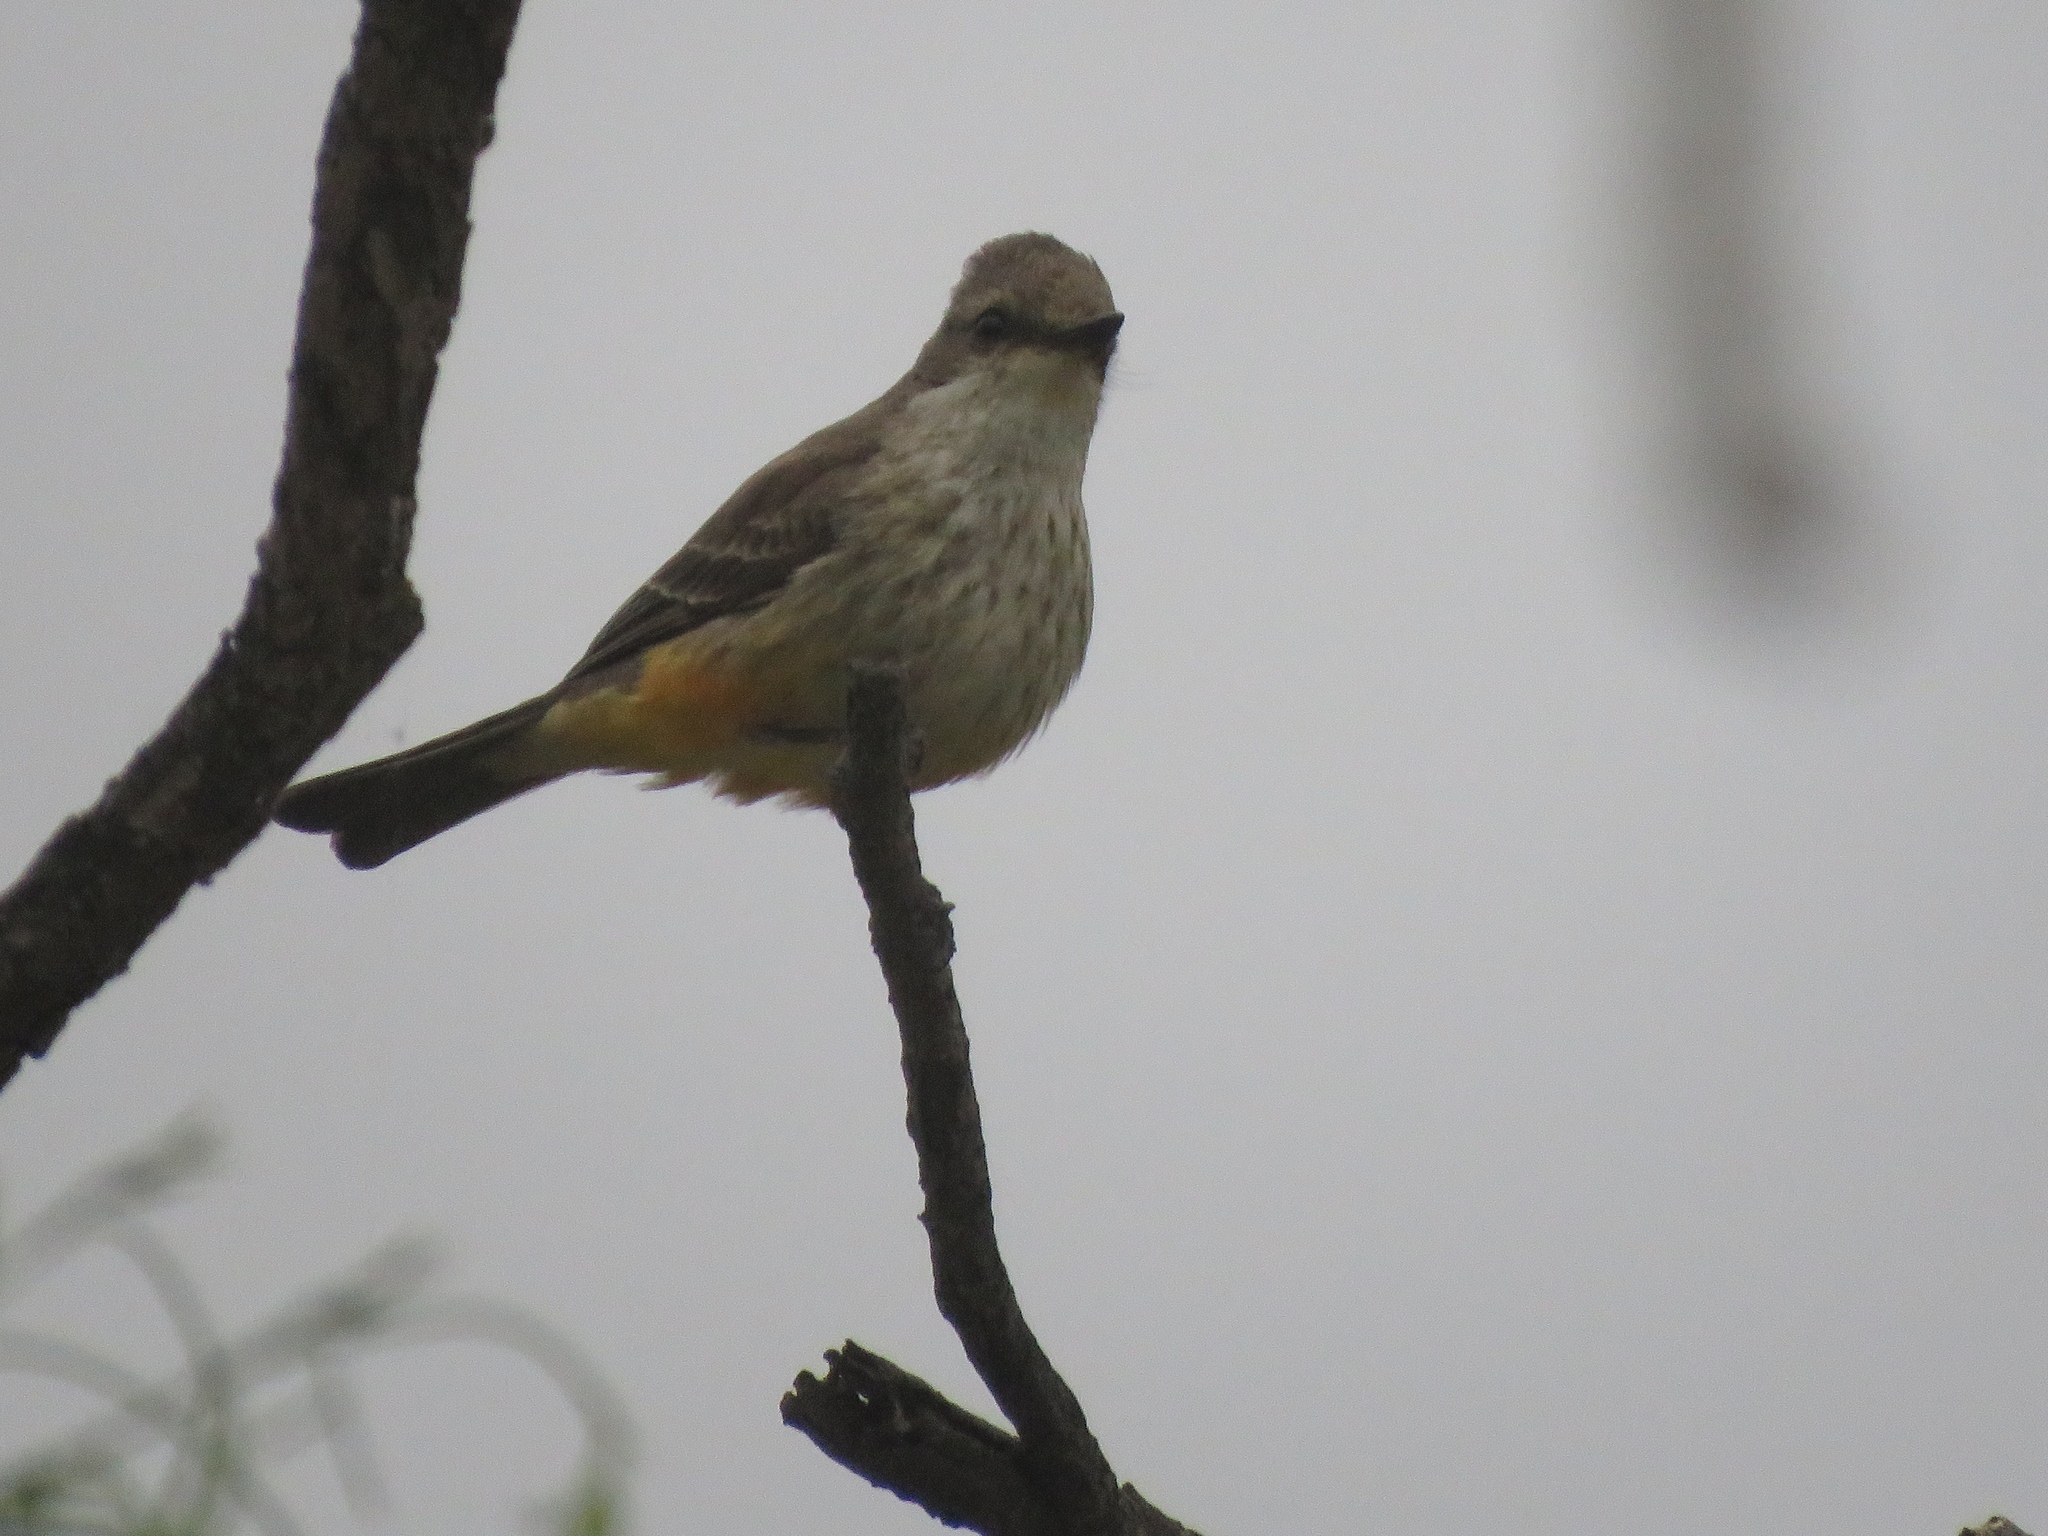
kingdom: Animalia
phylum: Chordata
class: Aves
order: Passeriformes
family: Tyrannidae
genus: Pyrocephalus
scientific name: Pyrocephalus rubinus
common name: Vermilion flycatcher
